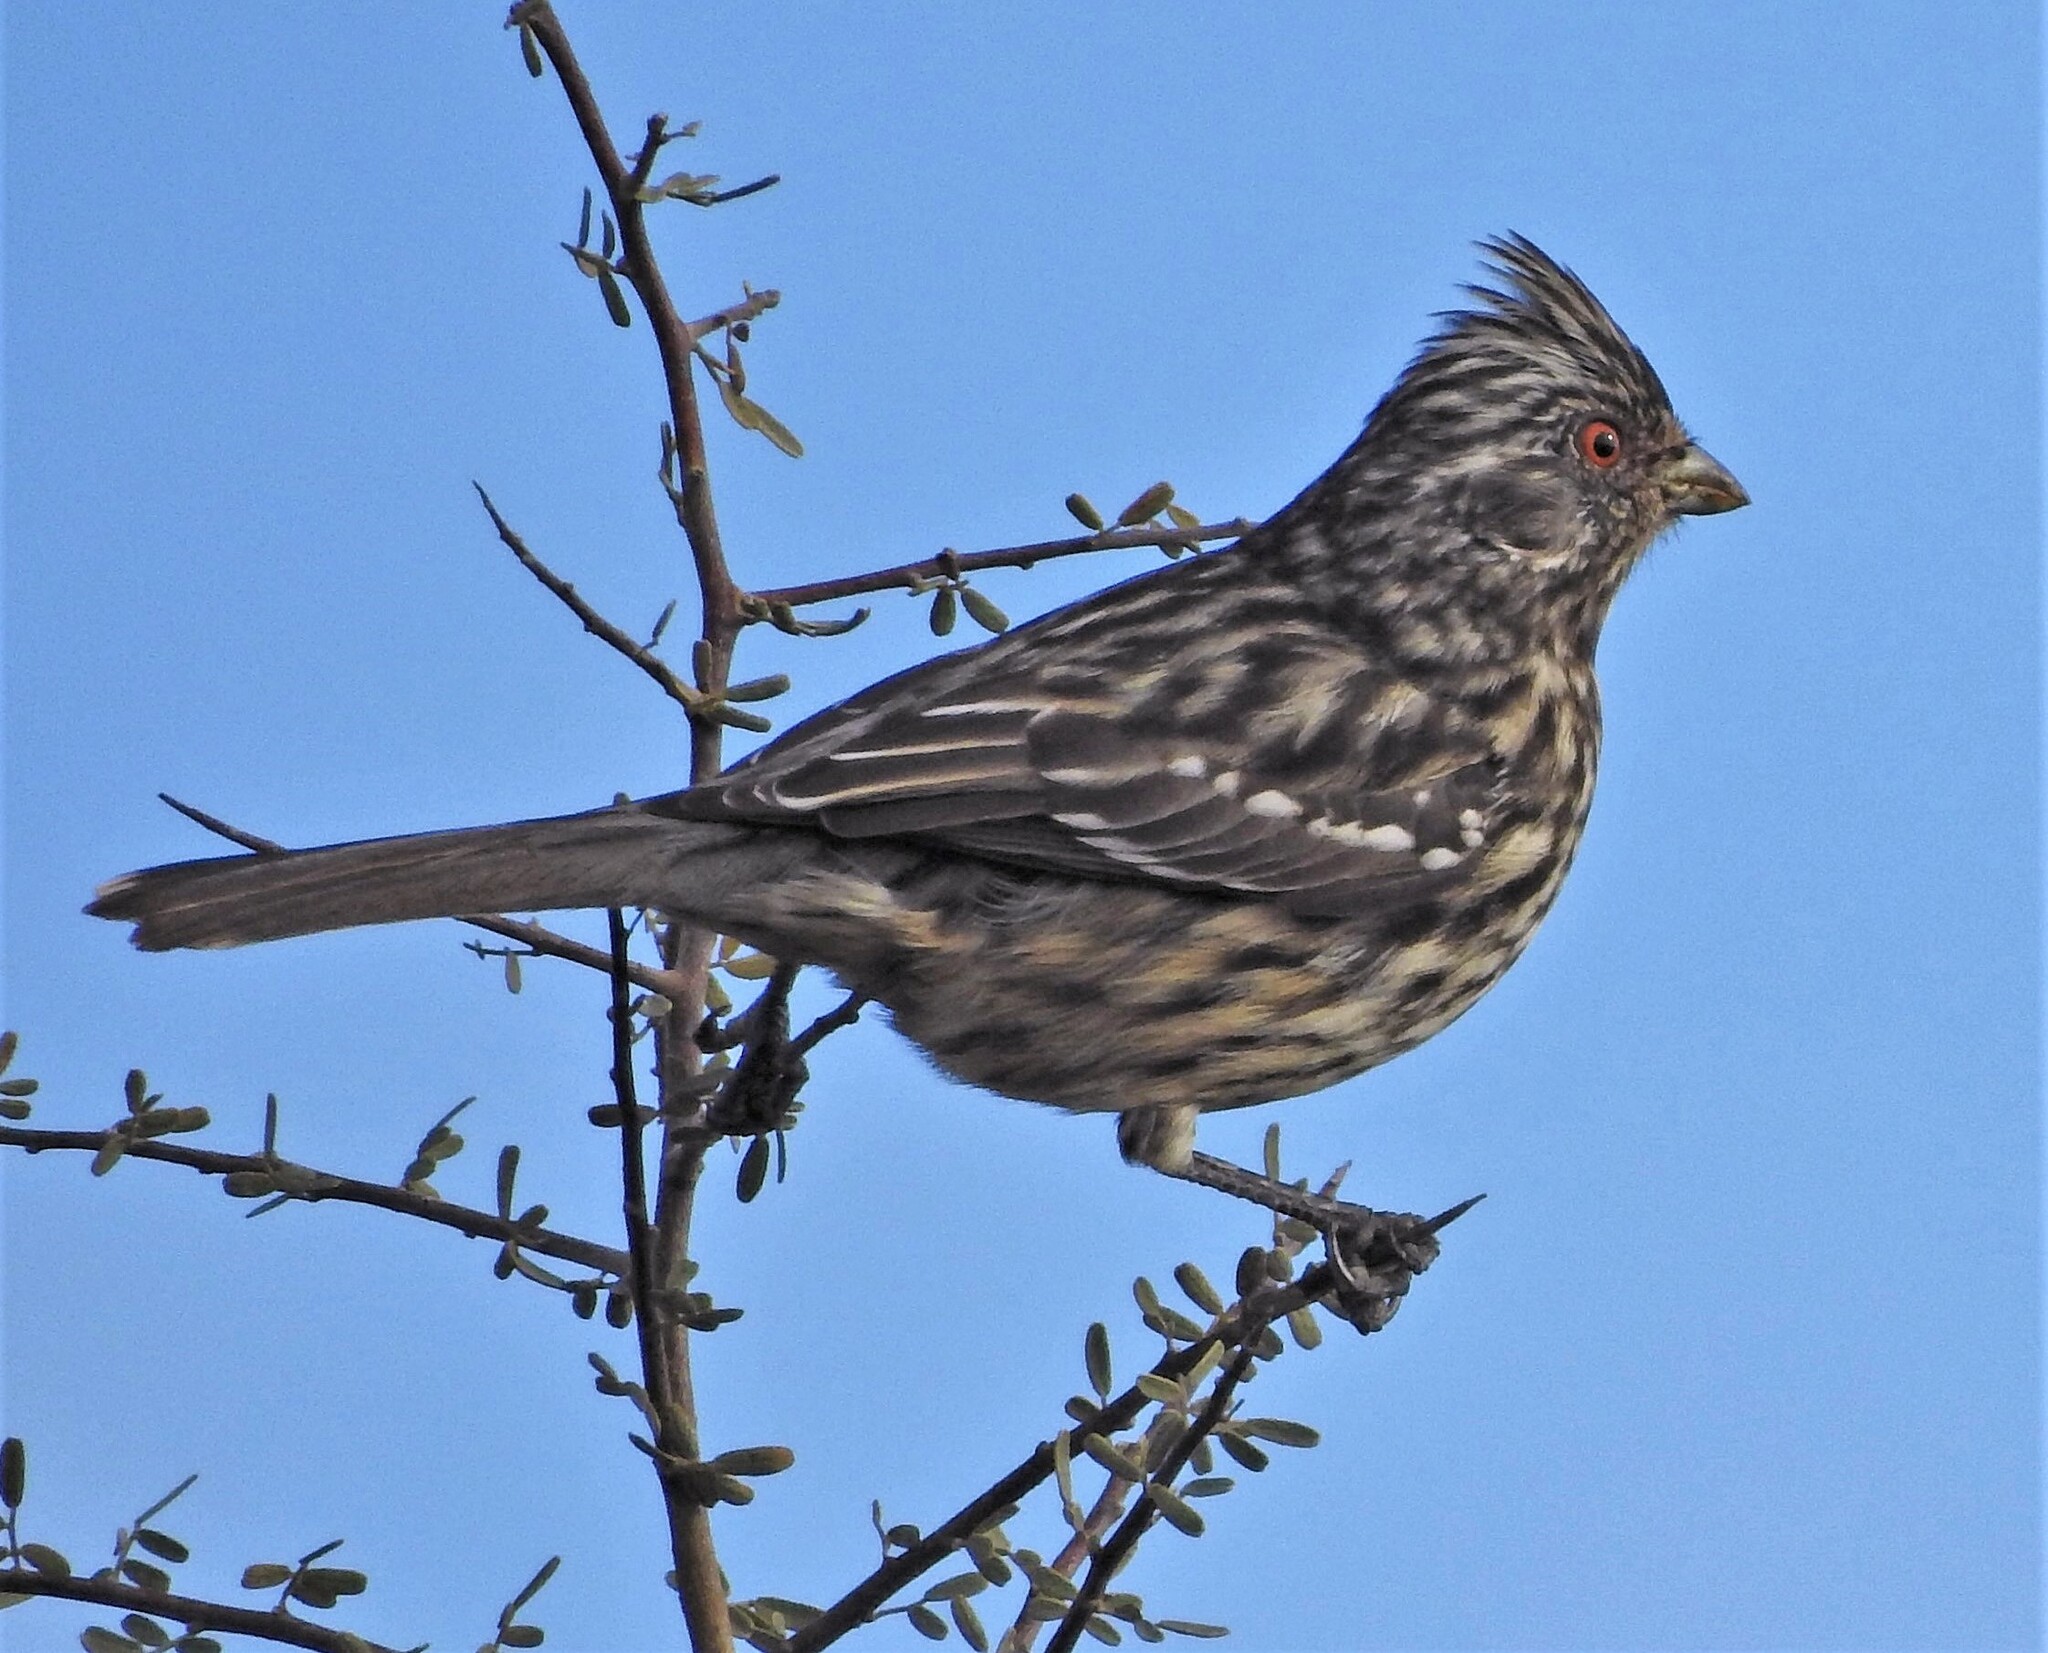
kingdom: Animalia
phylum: Chordata
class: Aves
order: Passeriformes
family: Cotingidae
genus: Phytotoma
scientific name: Phytotoma rutila
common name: White-tipped plantcutter
